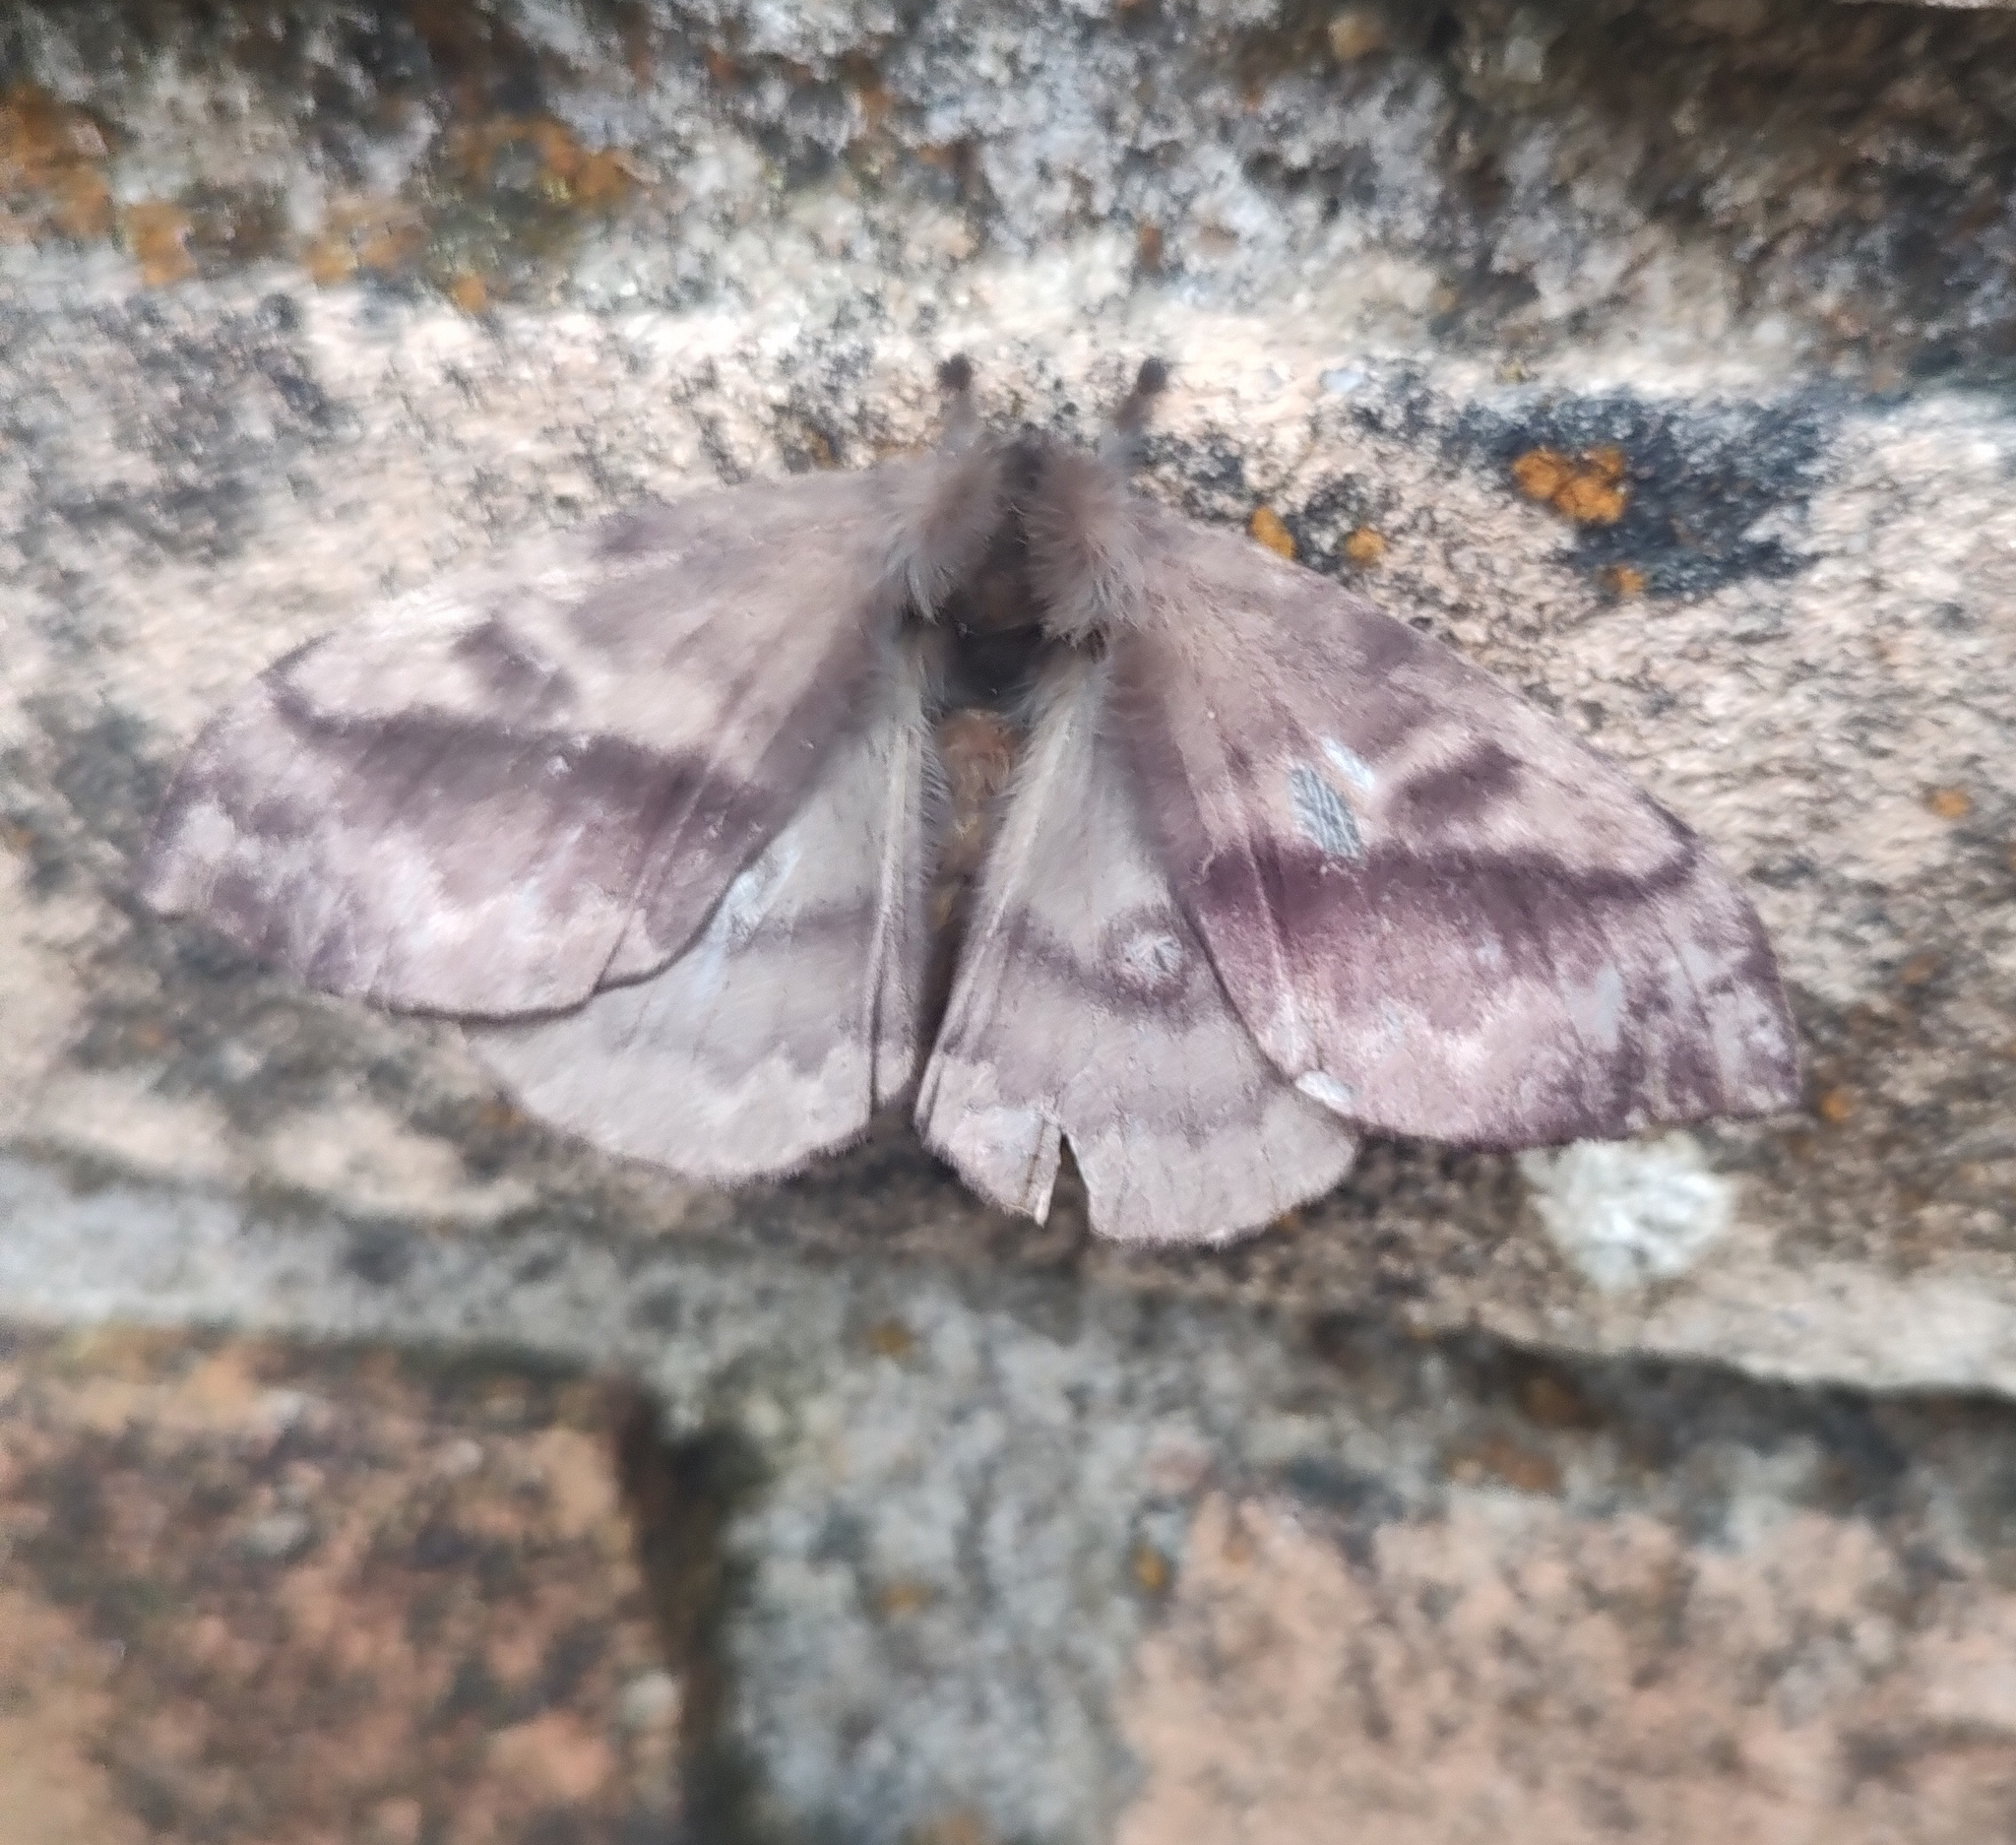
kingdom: Animalia
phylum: Arthropoda
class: Insecta
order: Lepidoptera
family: Saturniidae
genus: Hylesia
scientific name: Hylesia
